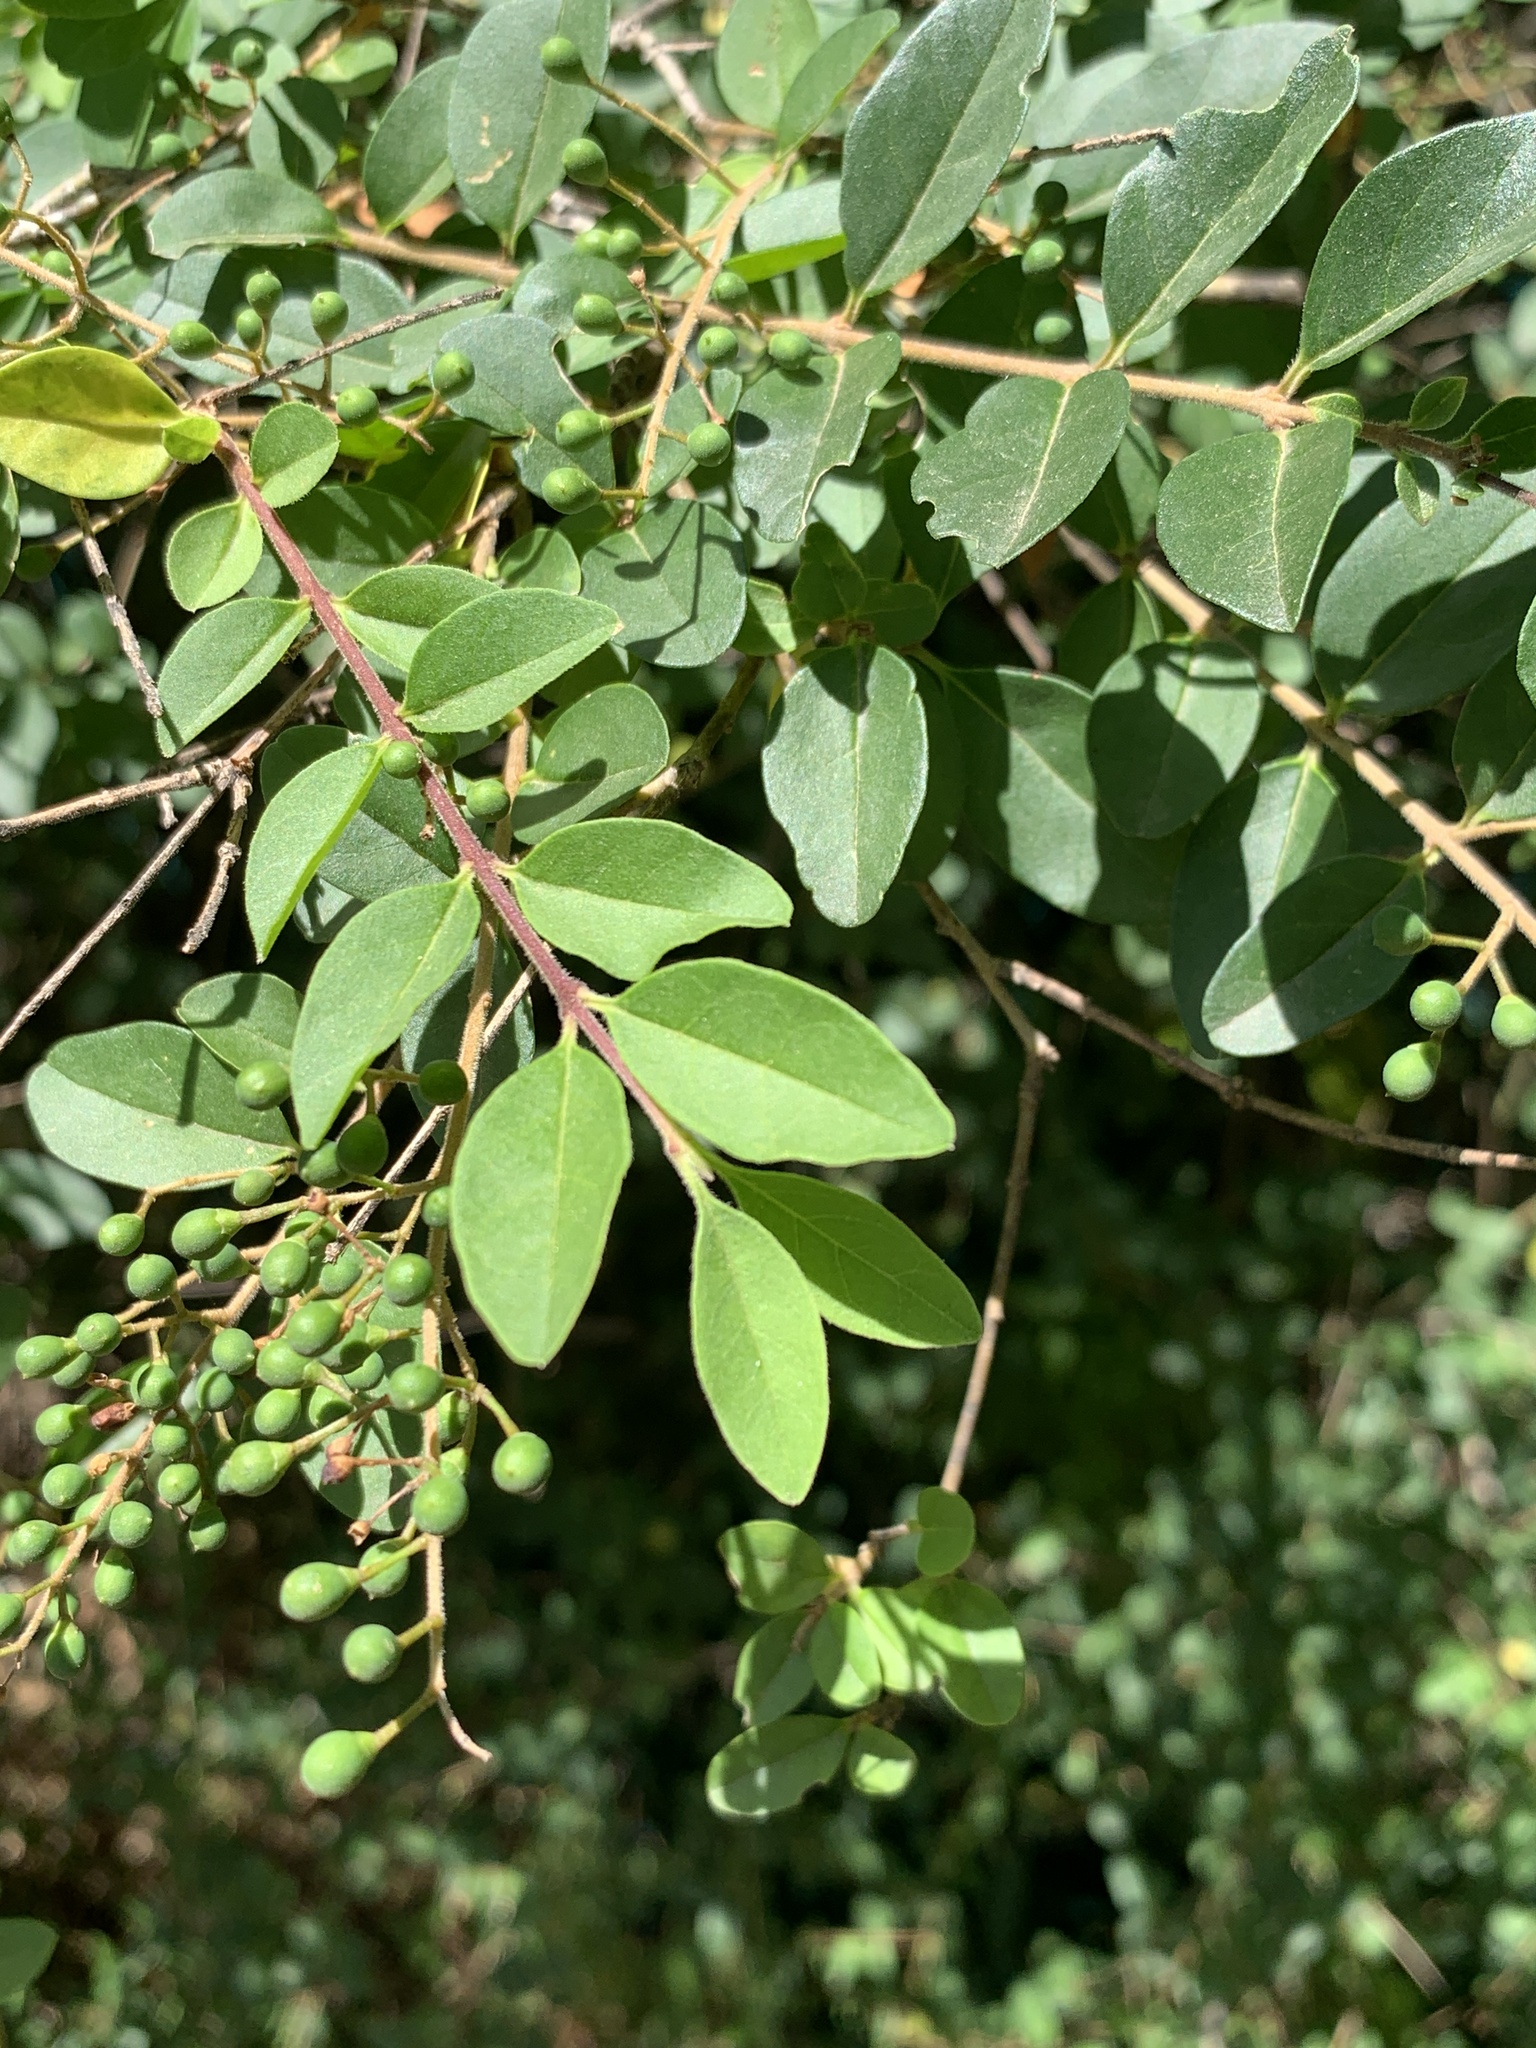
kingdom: Plantae
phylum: Tracheophyta
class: Magnoliopsida
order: Lamiales
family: Oleaceae
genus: Ligustrum
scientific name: Ligustrum sinense
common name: Chinese privet
